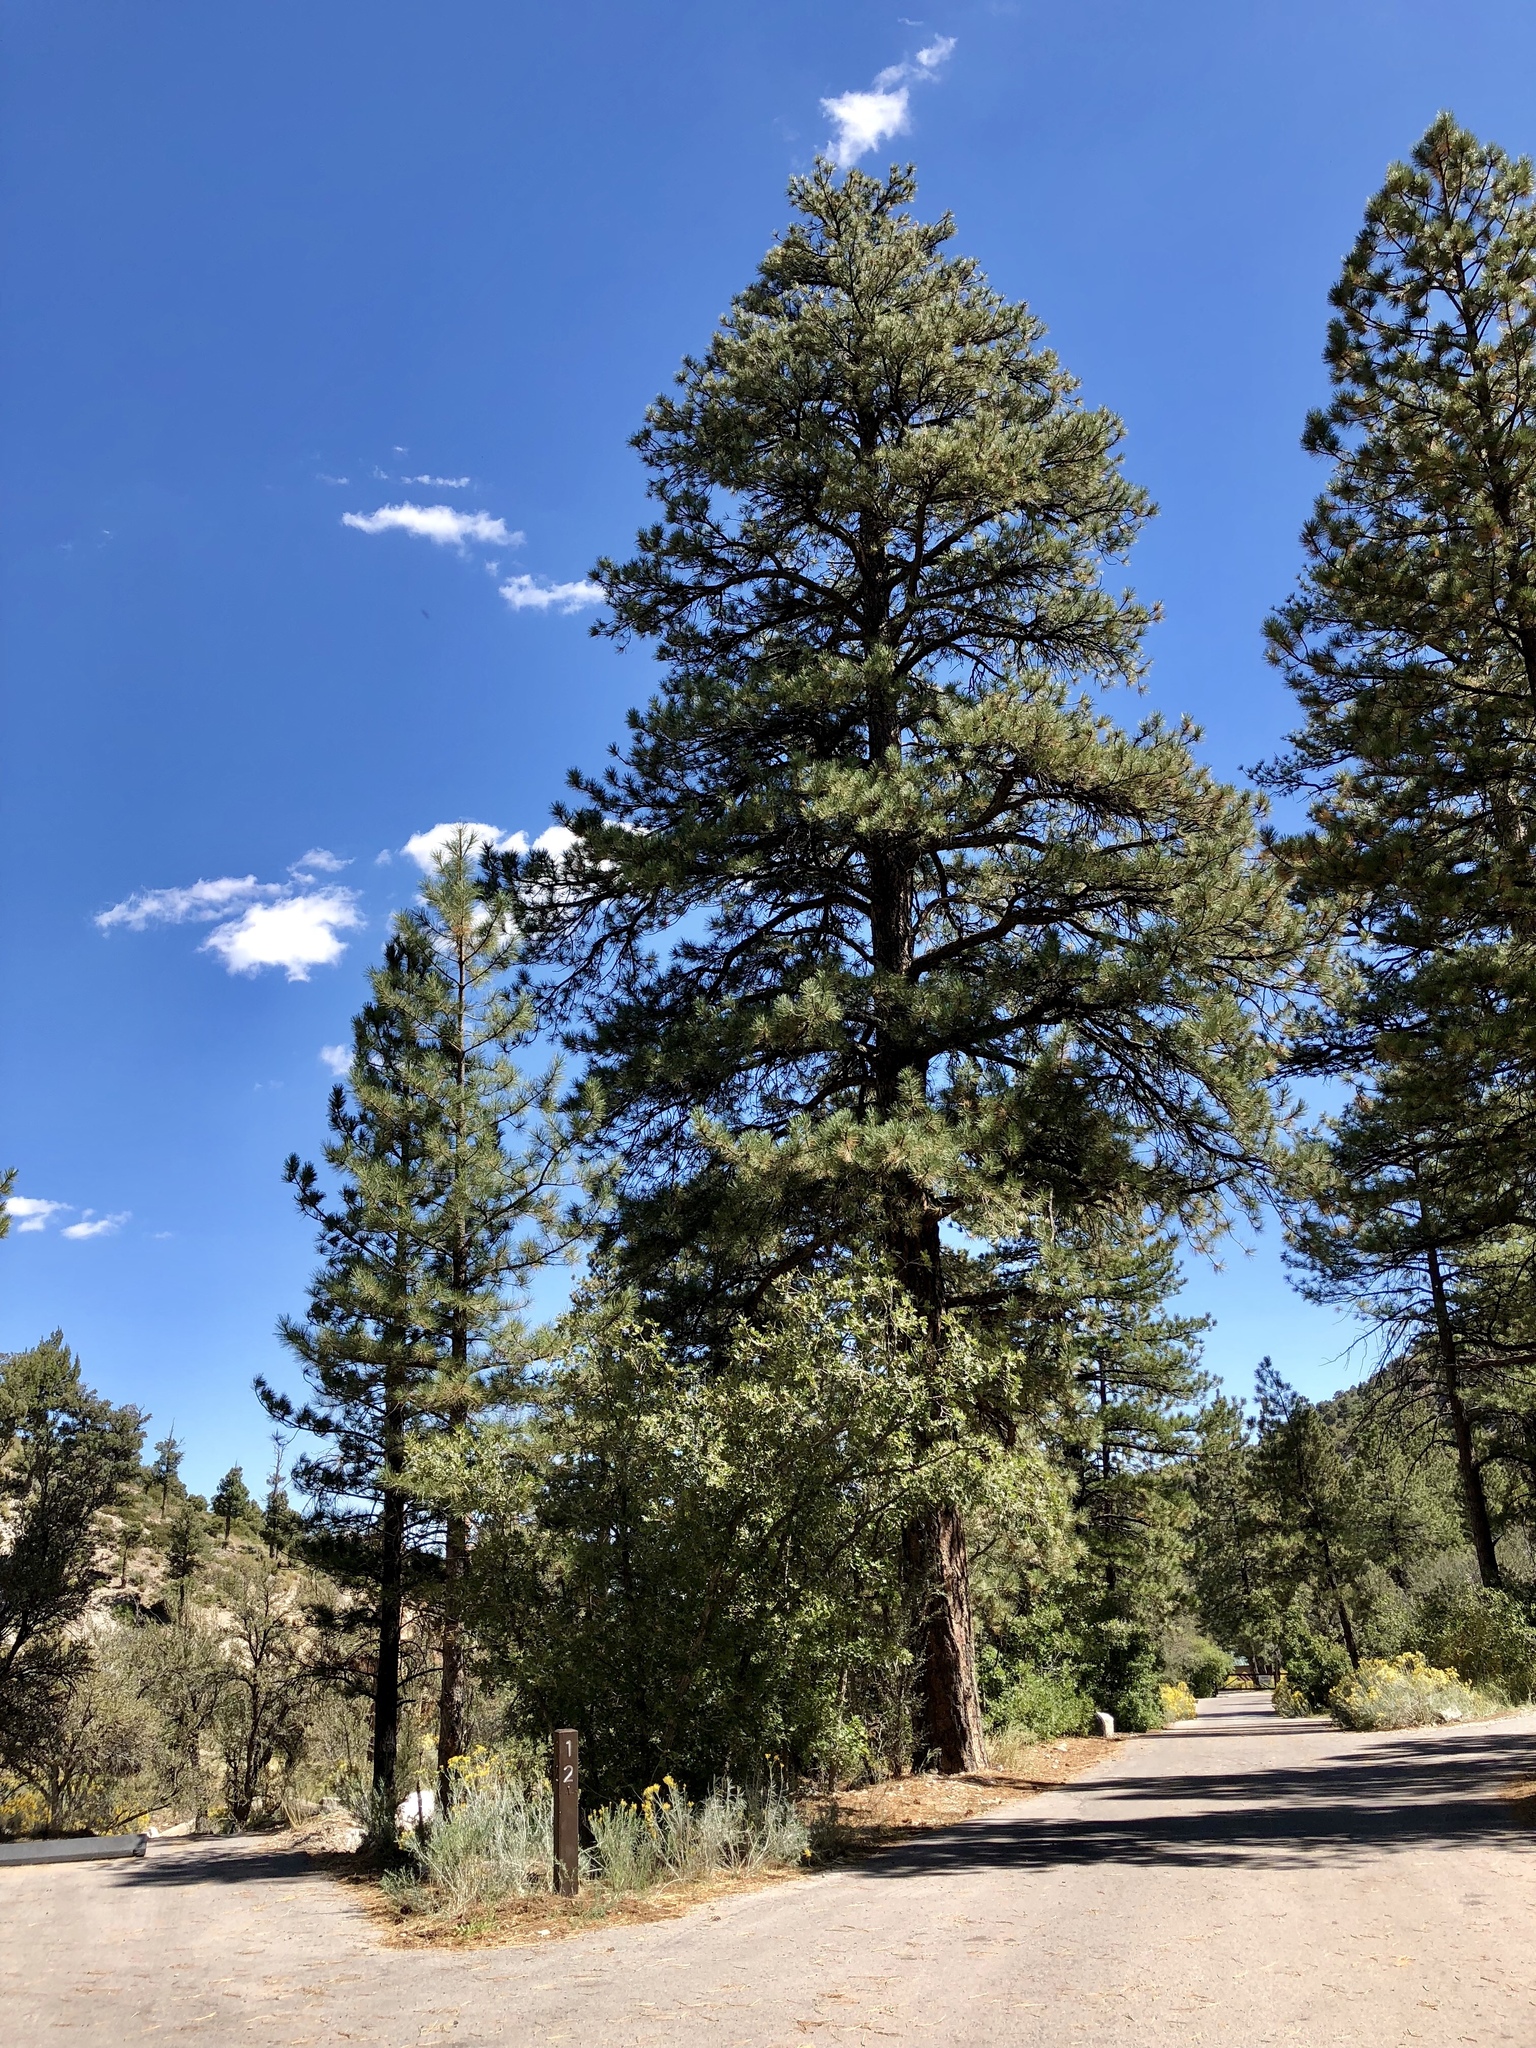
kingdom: Plantae
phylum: Tracheophyta
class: Pinopsida
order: Pinales
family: Pinaceae
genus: Pinus
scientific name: Pinus ponderosa
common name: Western yellow-pine
